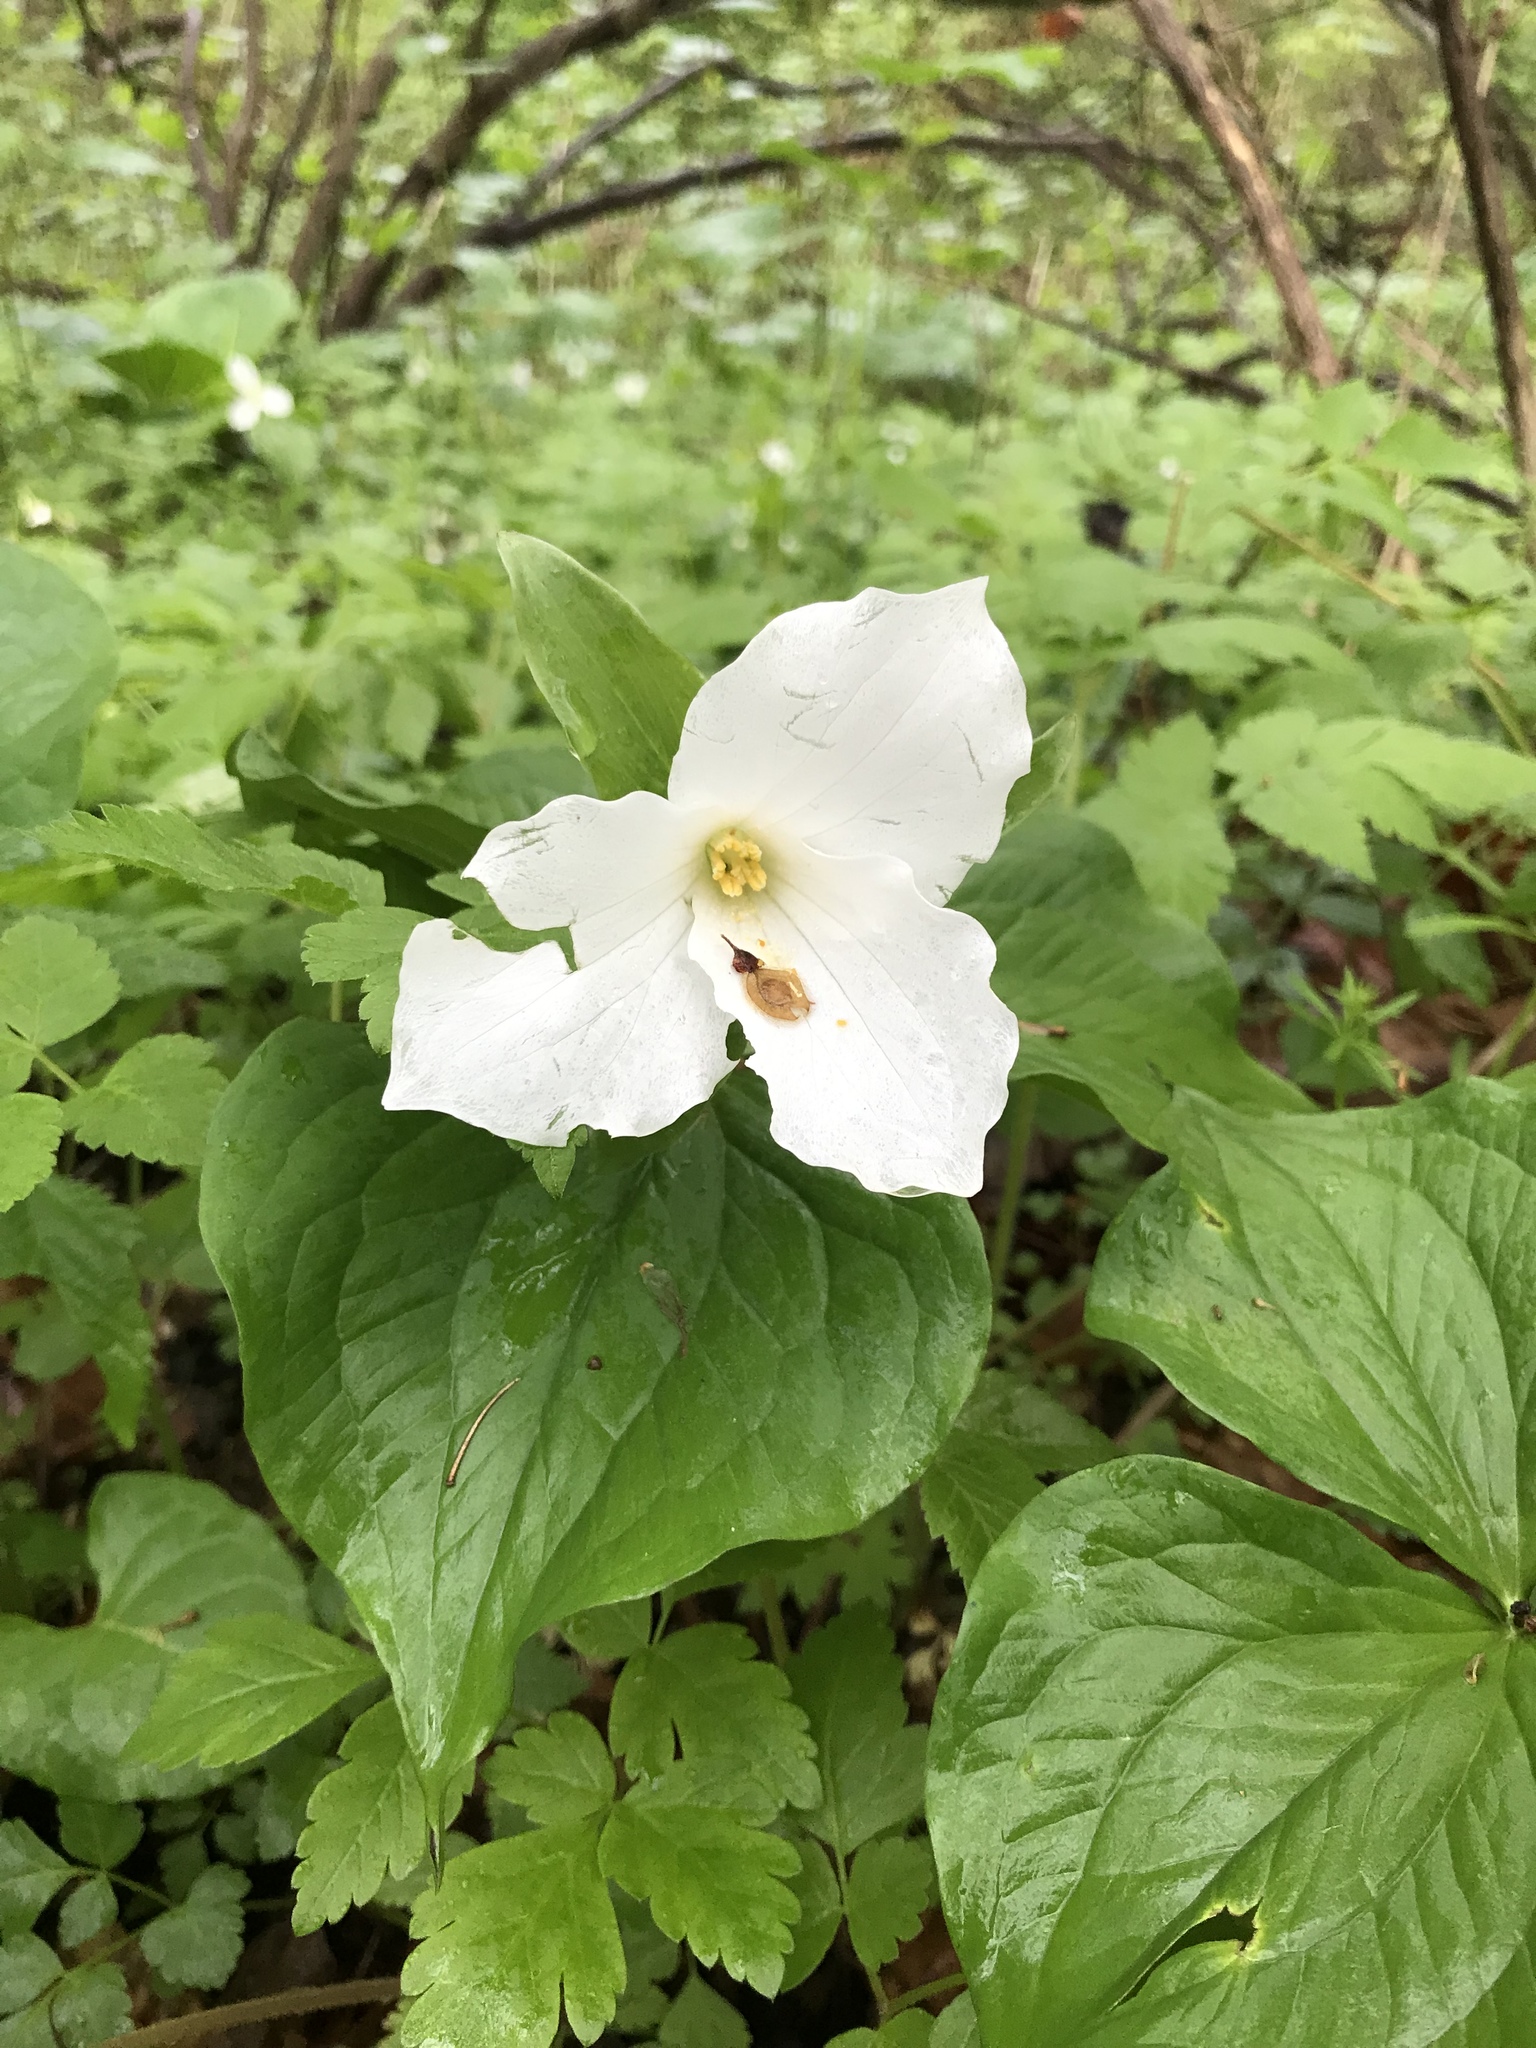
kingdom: Plantae
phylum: Tracheophyta
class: Liliopsida
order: Liliales
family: Melanthiaceae
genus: Trillium
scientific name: Trillium grandiflorum
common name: Great white trillium
